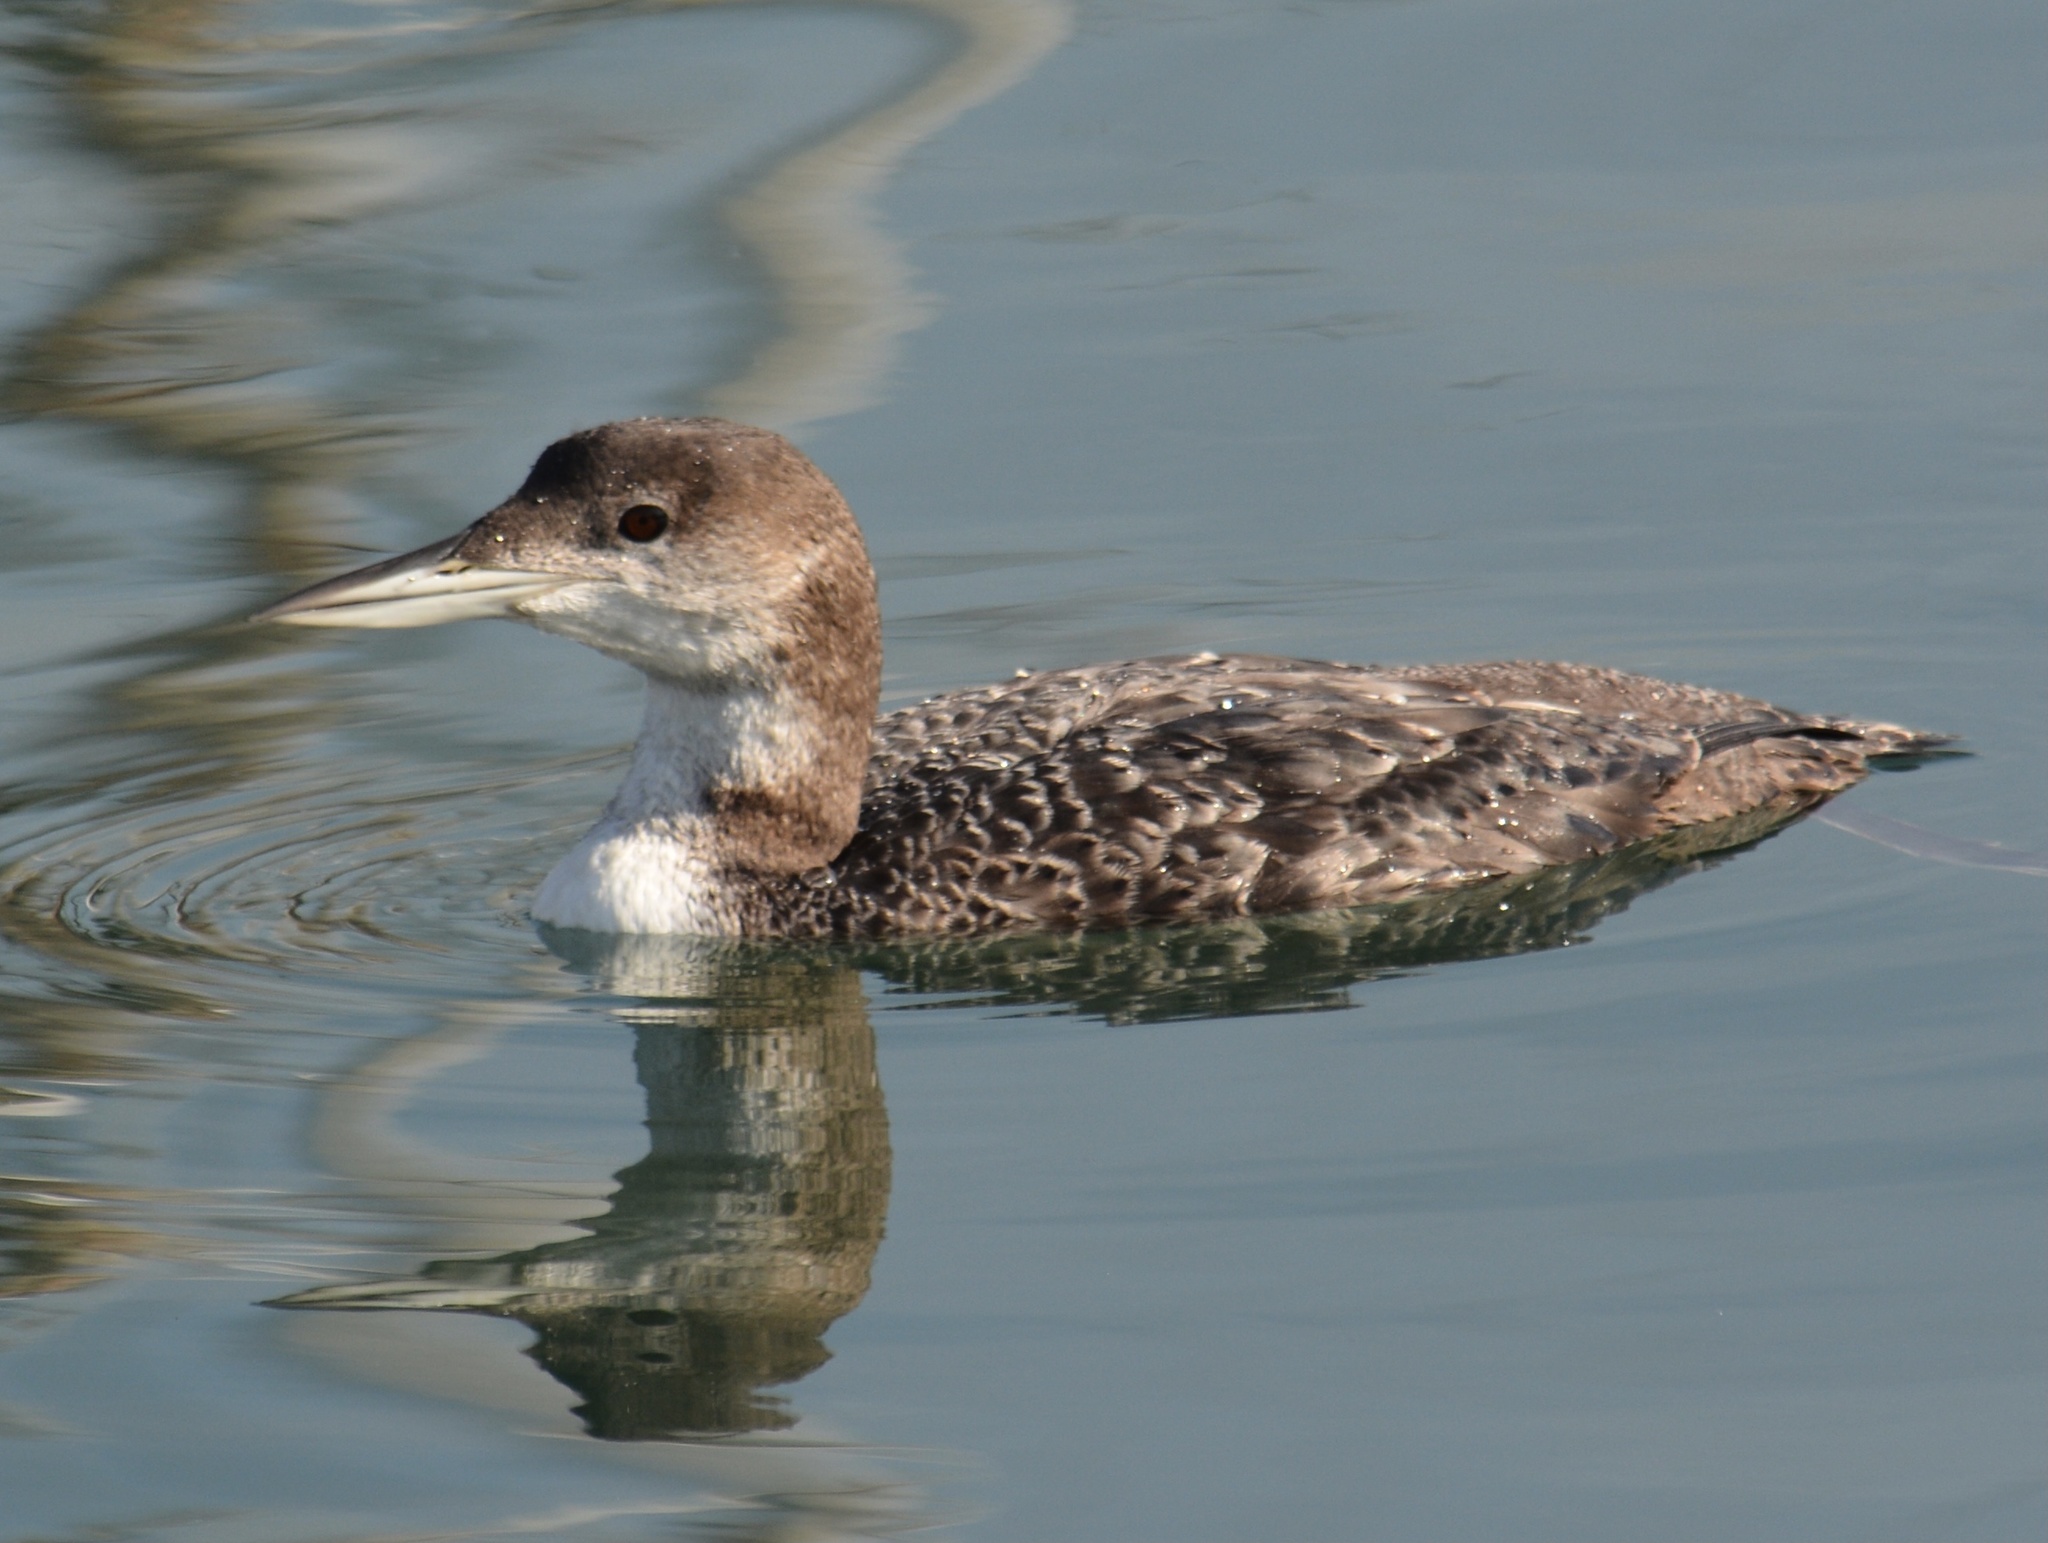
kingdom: Animalia
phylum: Chordata
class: Aves
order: Gaviiformes
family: Gaviidae
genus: Gavia
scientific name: Gavia immer
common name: Common loon
